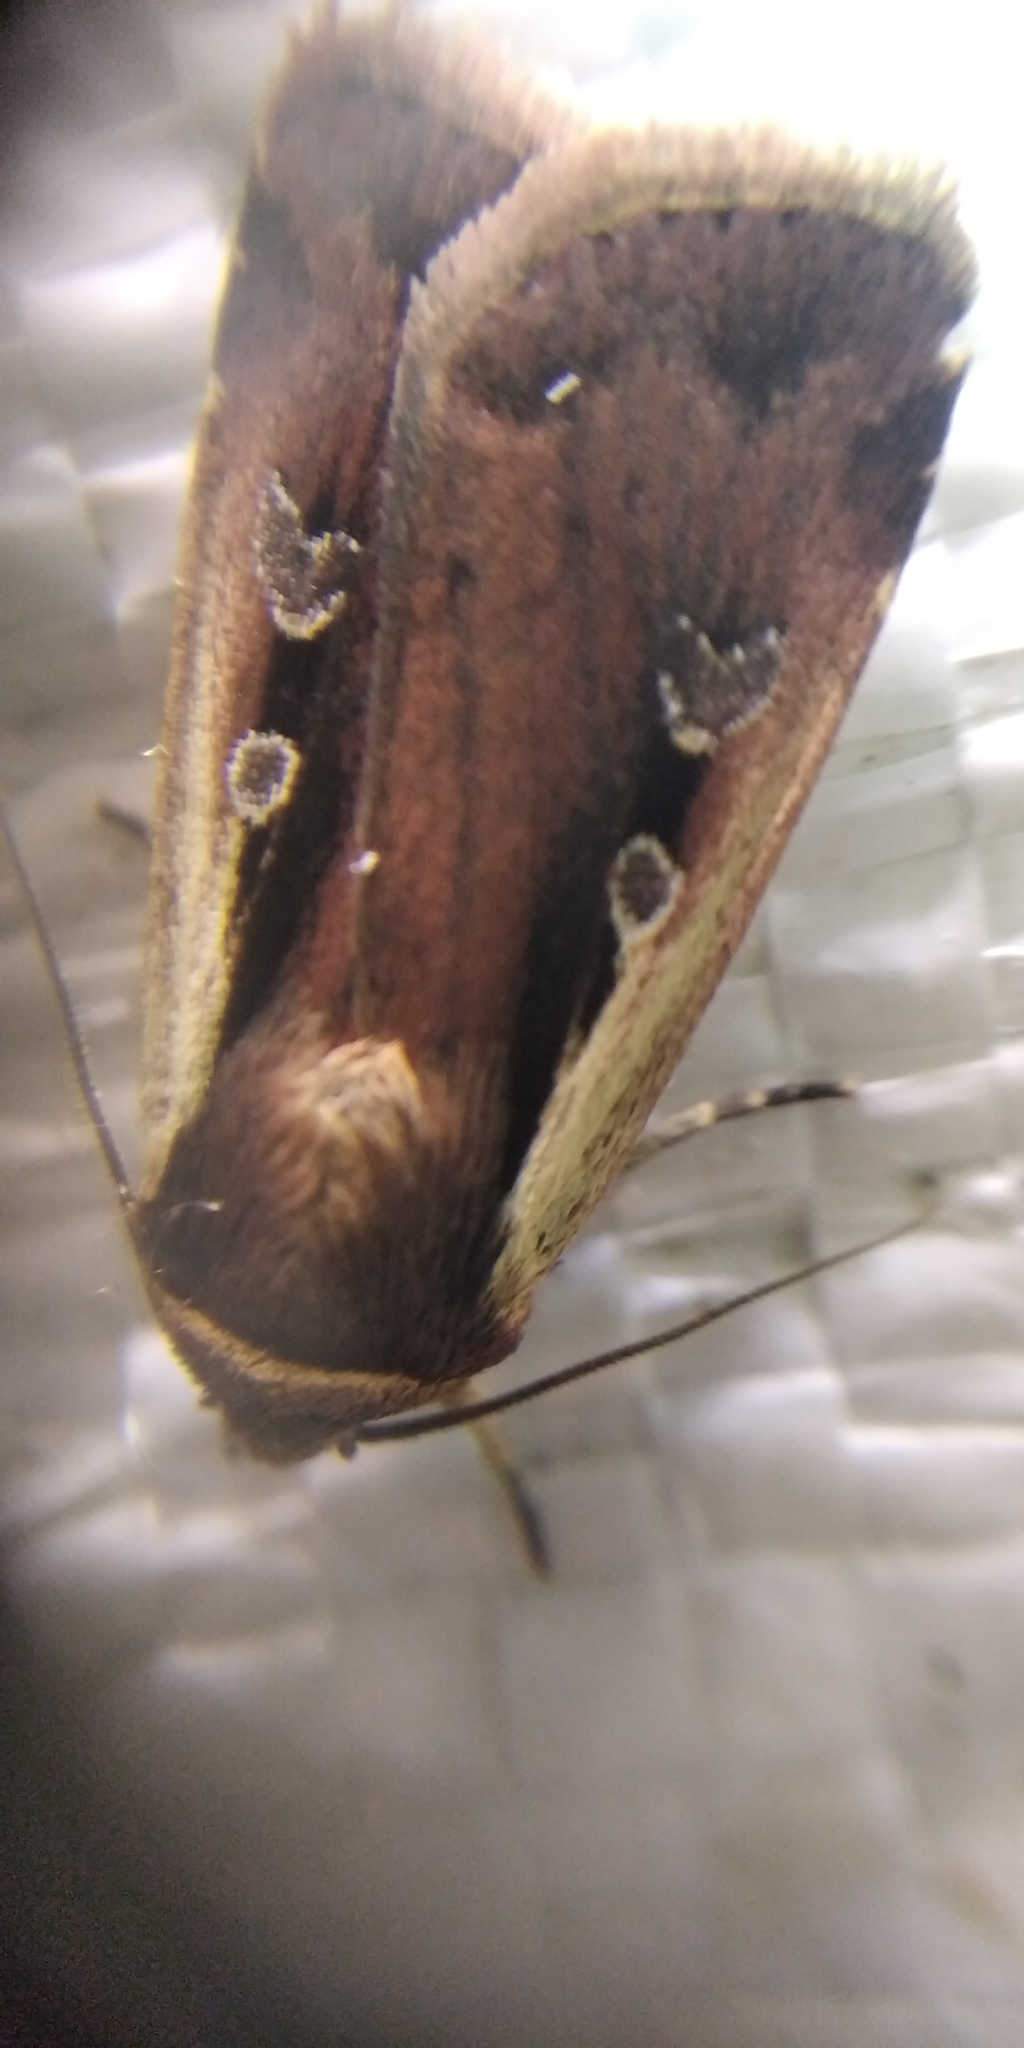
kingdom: Animalia
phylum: Arthropoda
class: Insecta
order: Lepidoptera
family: Noctuidae
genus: Ochropleura
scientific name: Ochropleura plecta
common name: Flame shoulder
